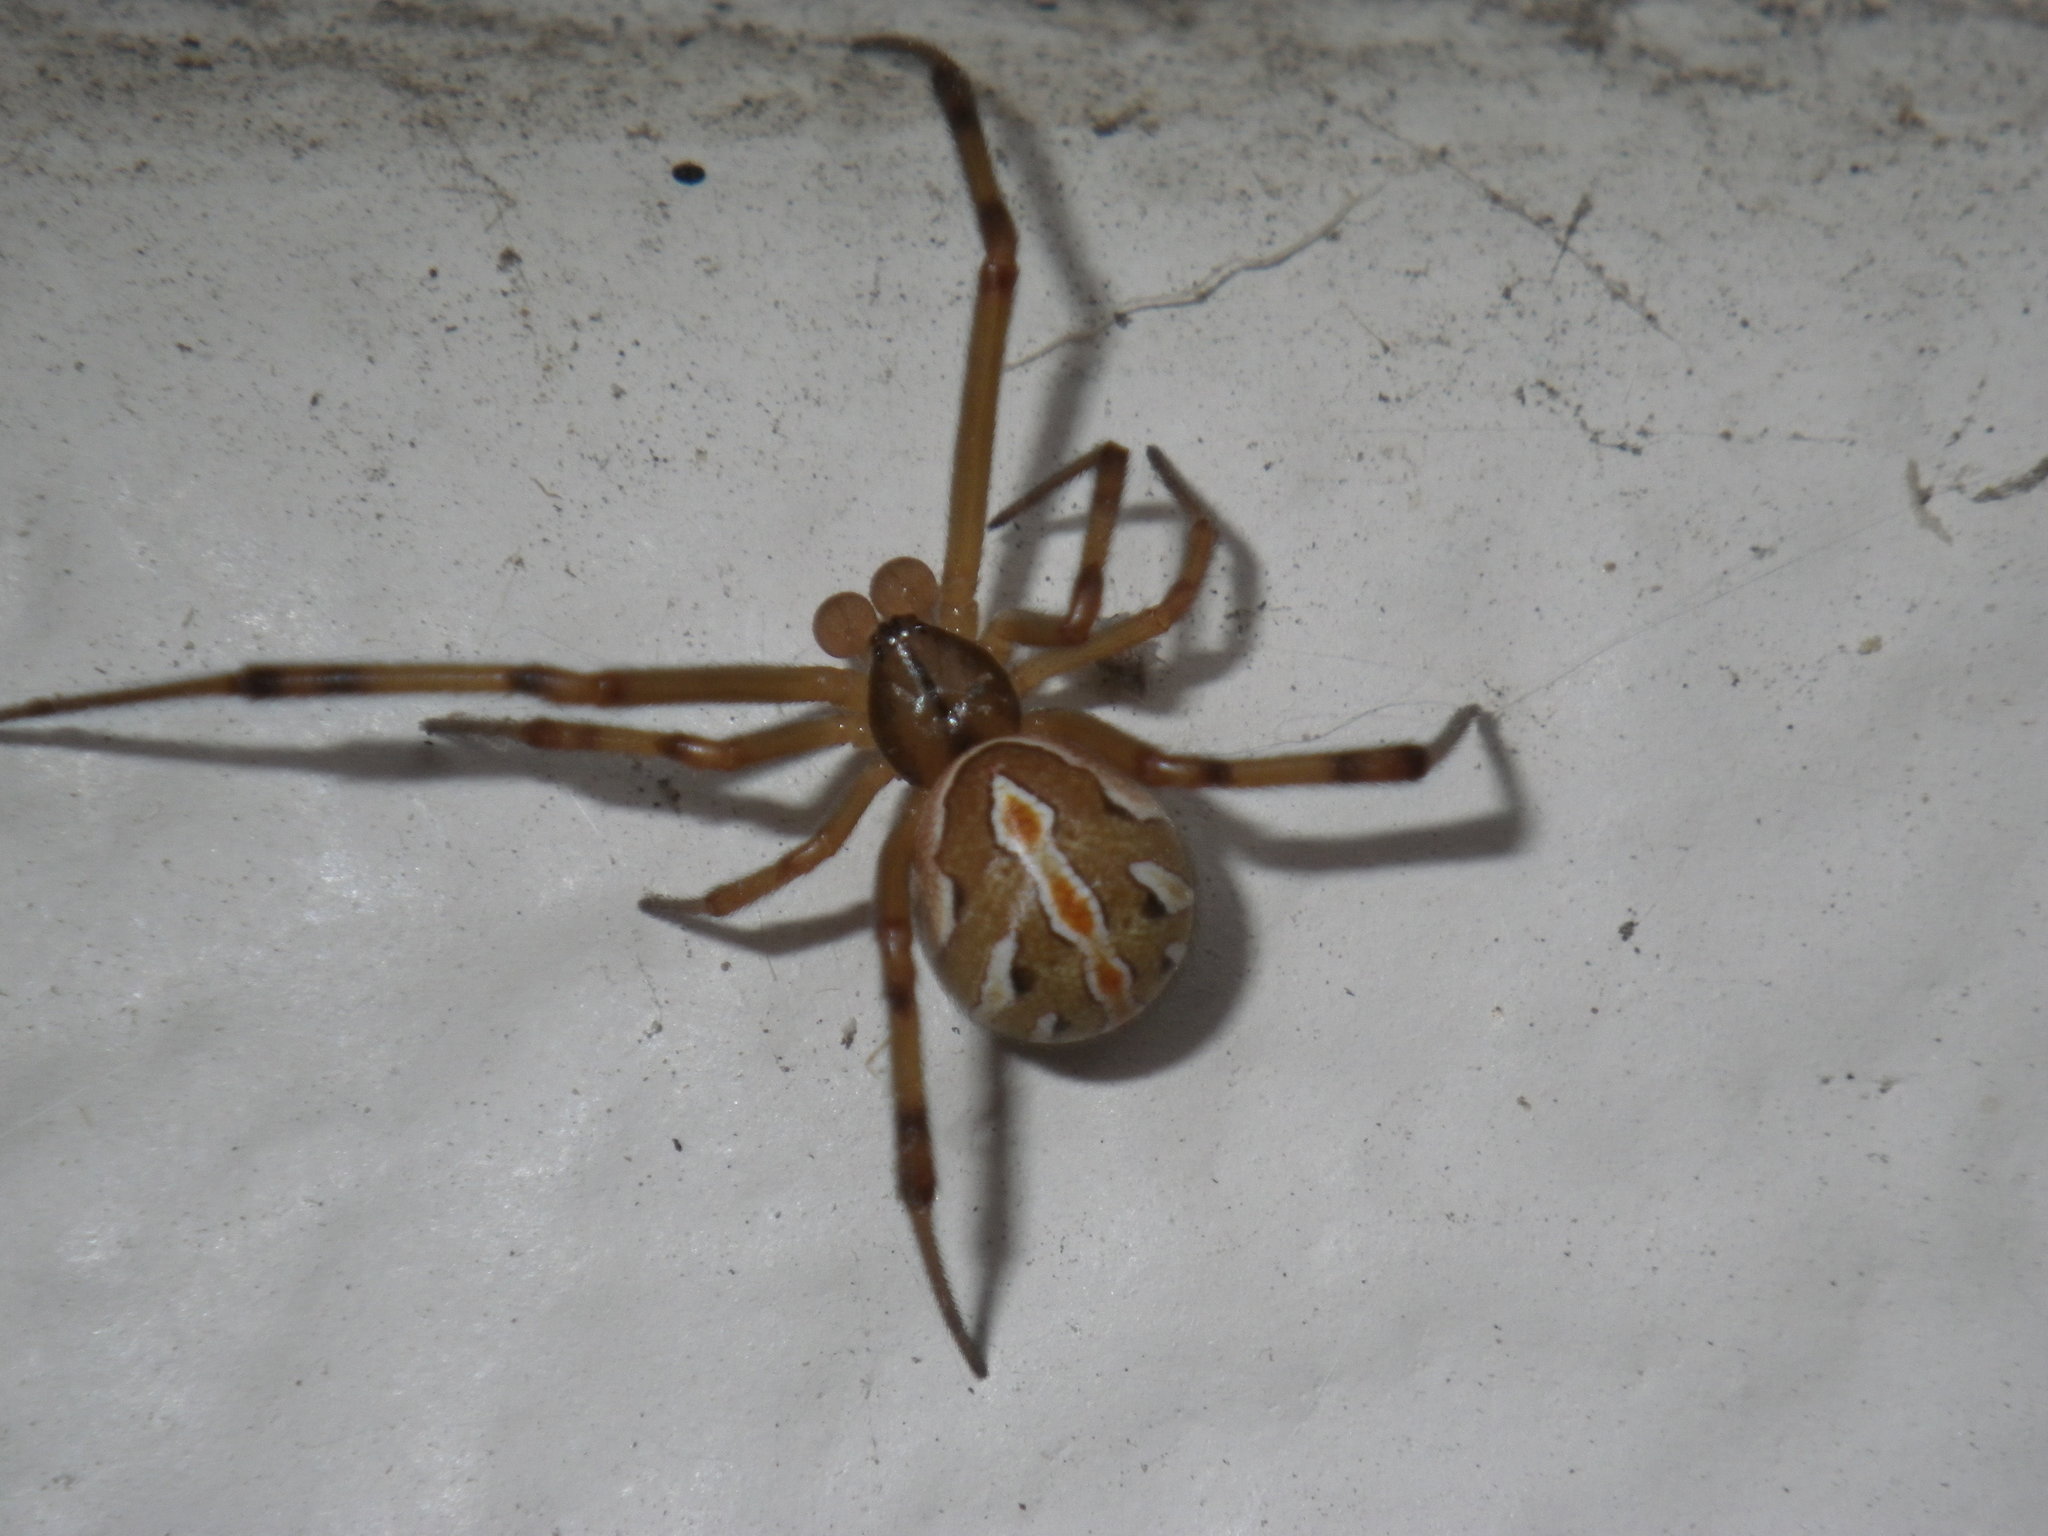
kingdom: Animalia
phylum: Arthropoda
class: Arachnida
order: Araneae
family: Theridiidae
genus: Latrodectus
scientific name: Latrodectus hesperus
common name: Western black widow
